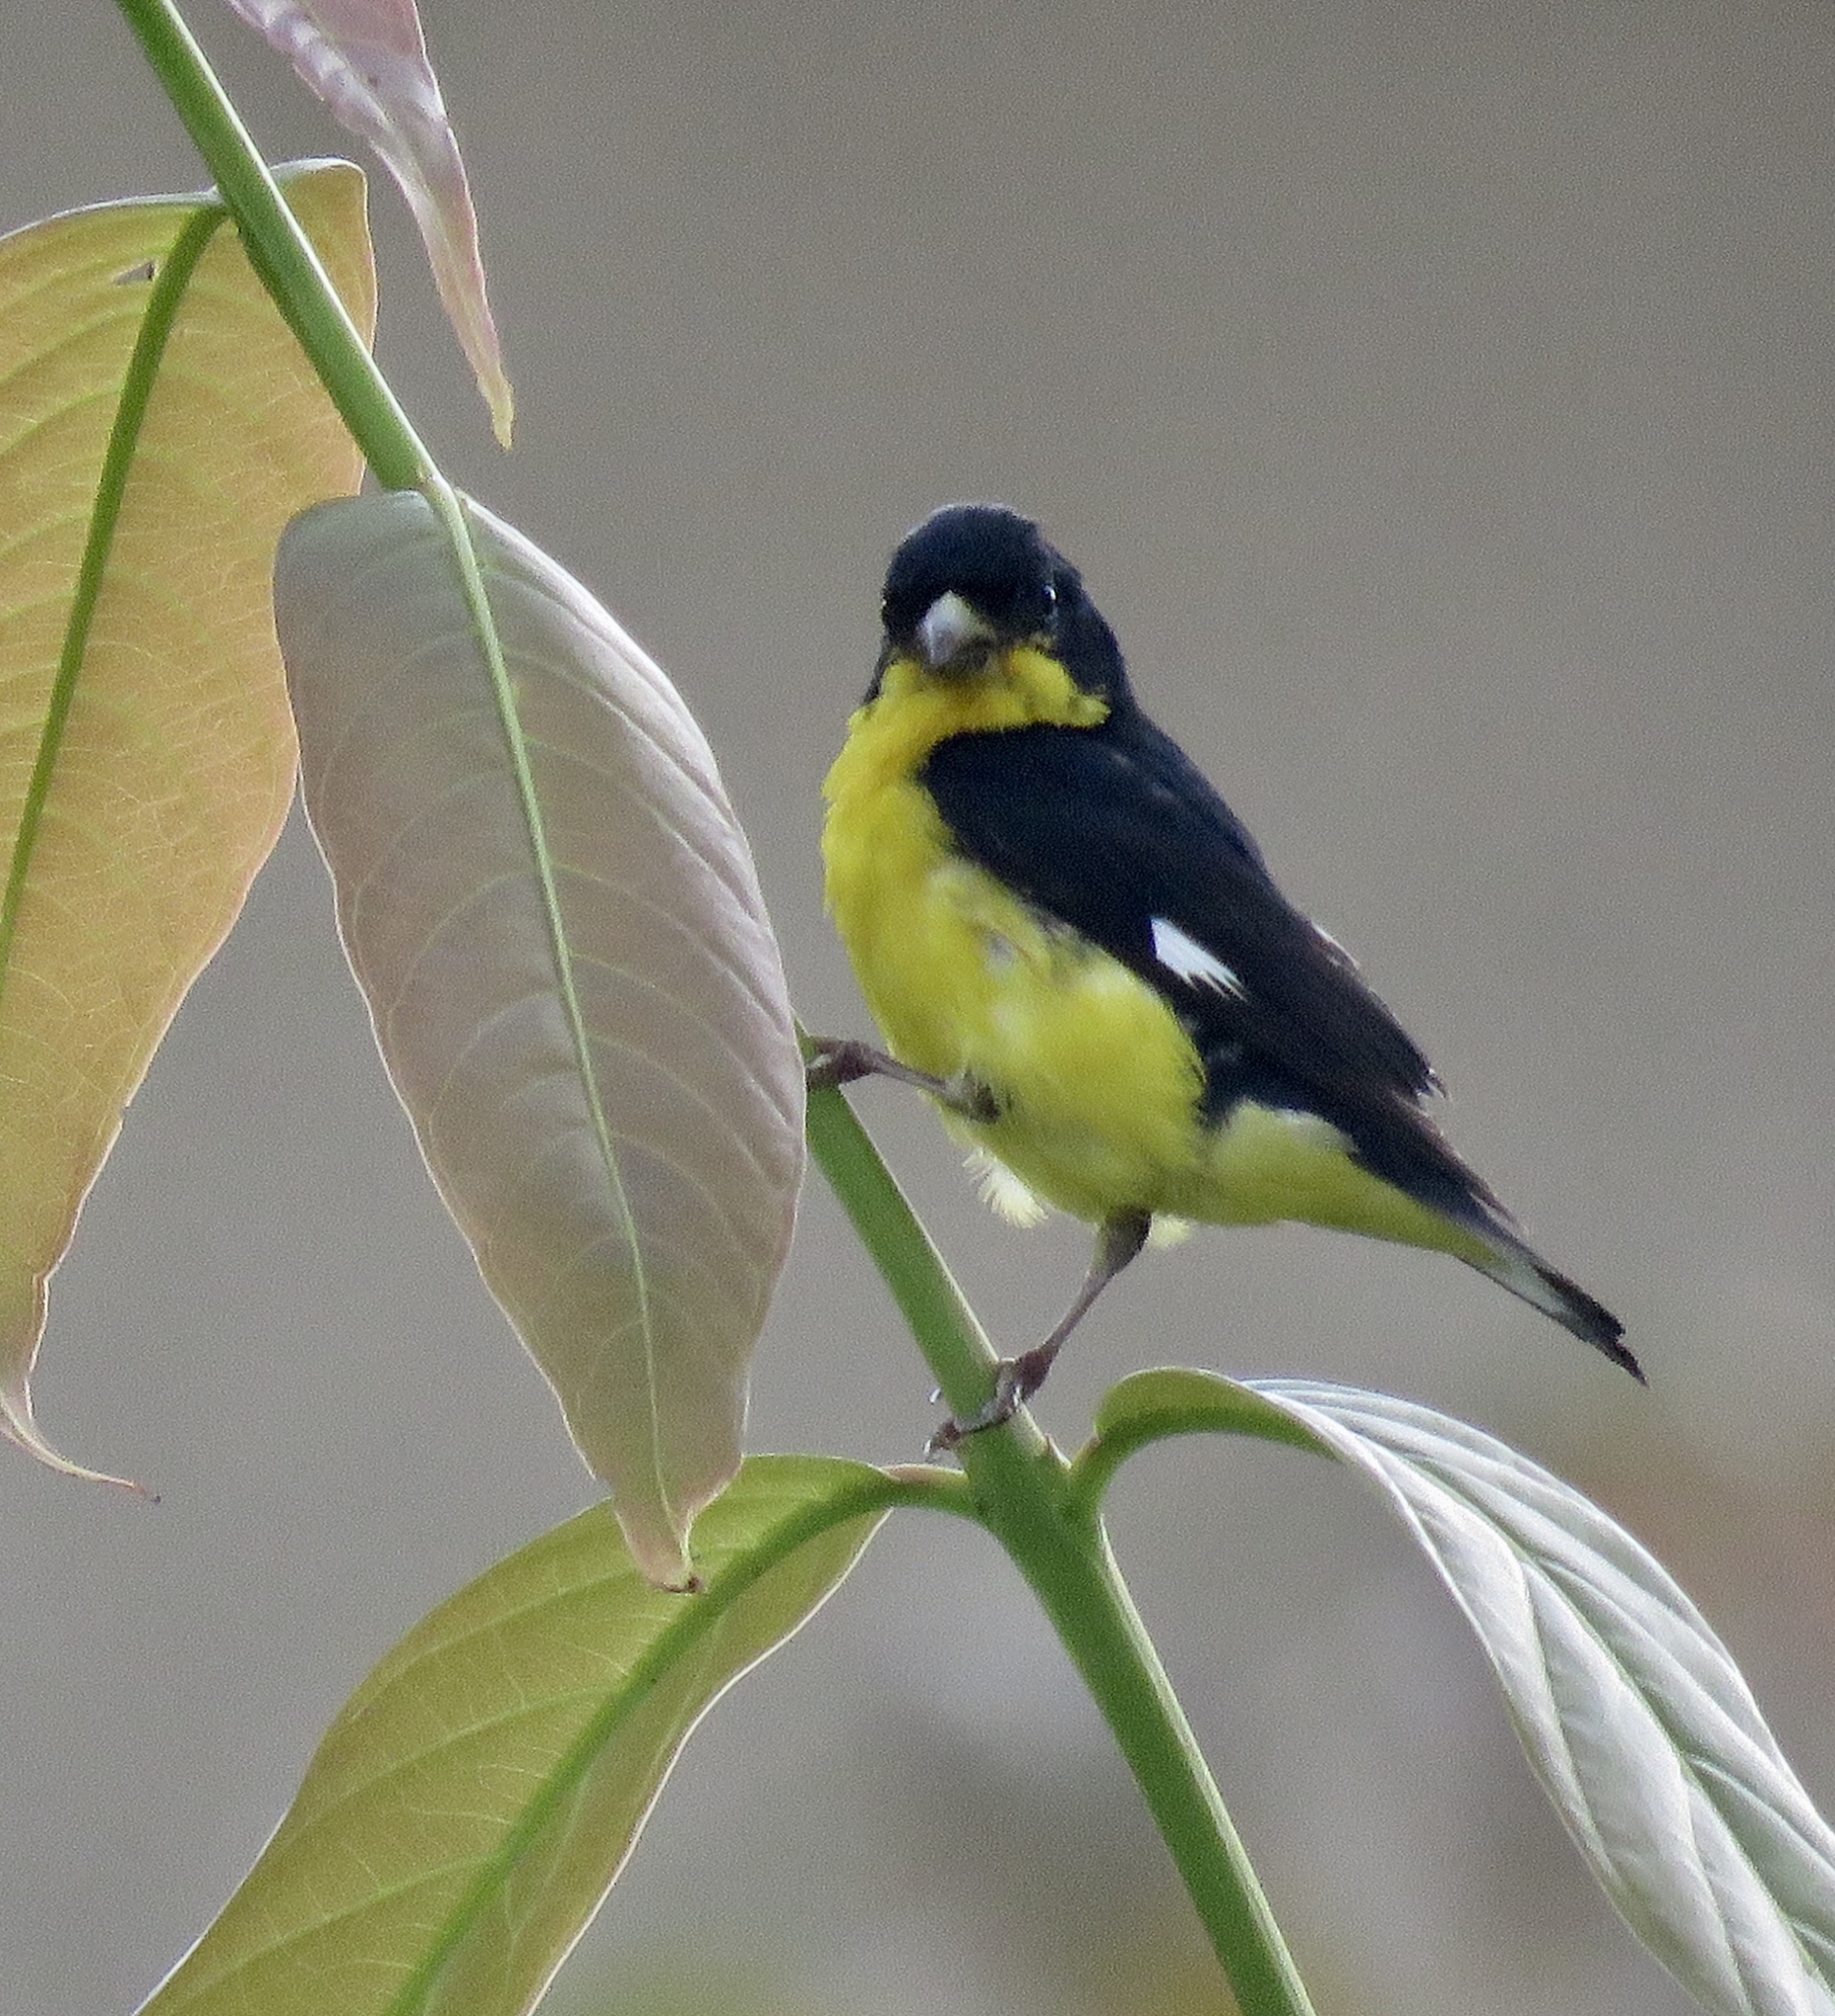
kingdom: Animalia
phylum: Chordata
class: Aves
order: Passeriformes
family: Fringillidae
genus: Spinus
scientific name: Spinus psaltria
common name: Lesser goldfinch
